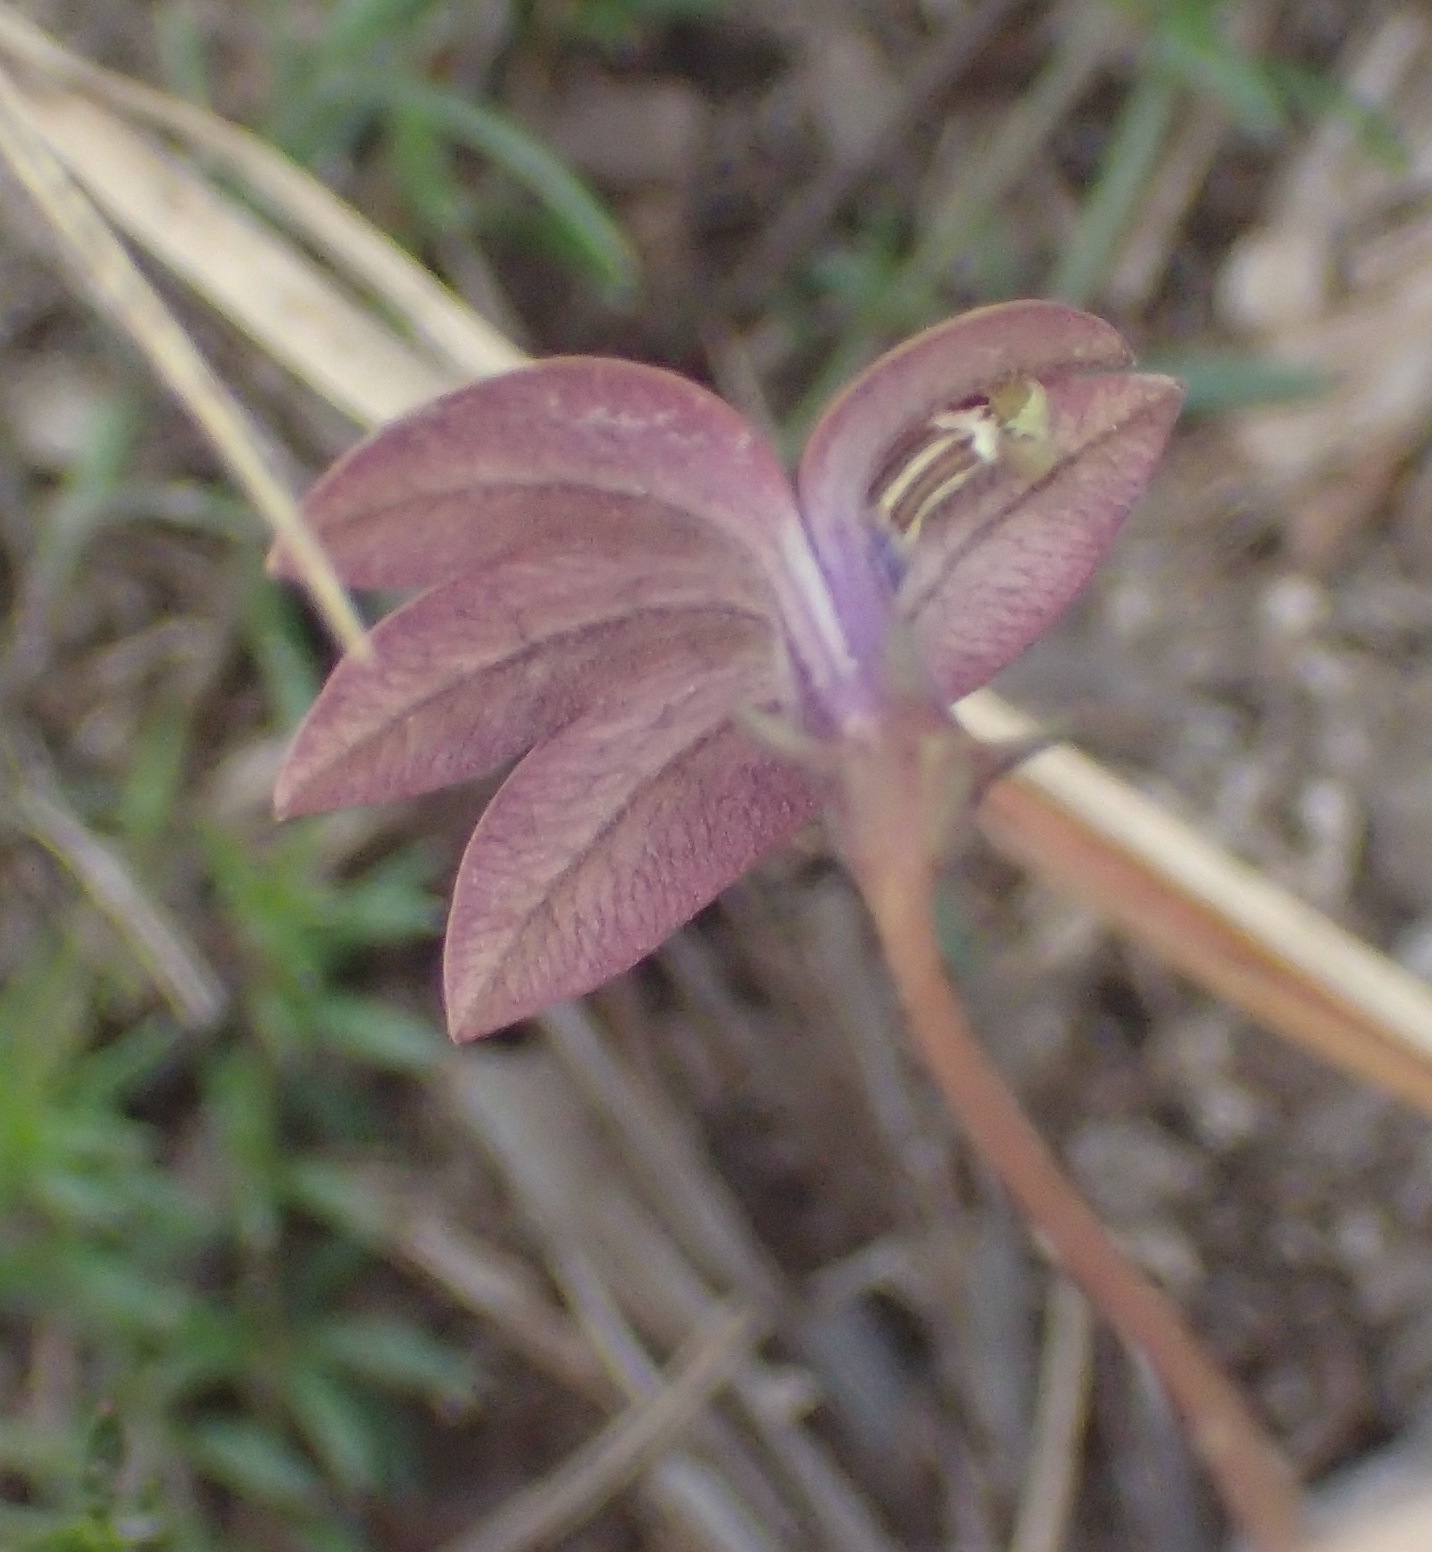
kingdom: Plantae
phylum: Tracheophyta
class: Magnoliopsida
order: Asterales
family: Campanulaceae
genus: Monopsis
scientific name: Monopsis unidentata
